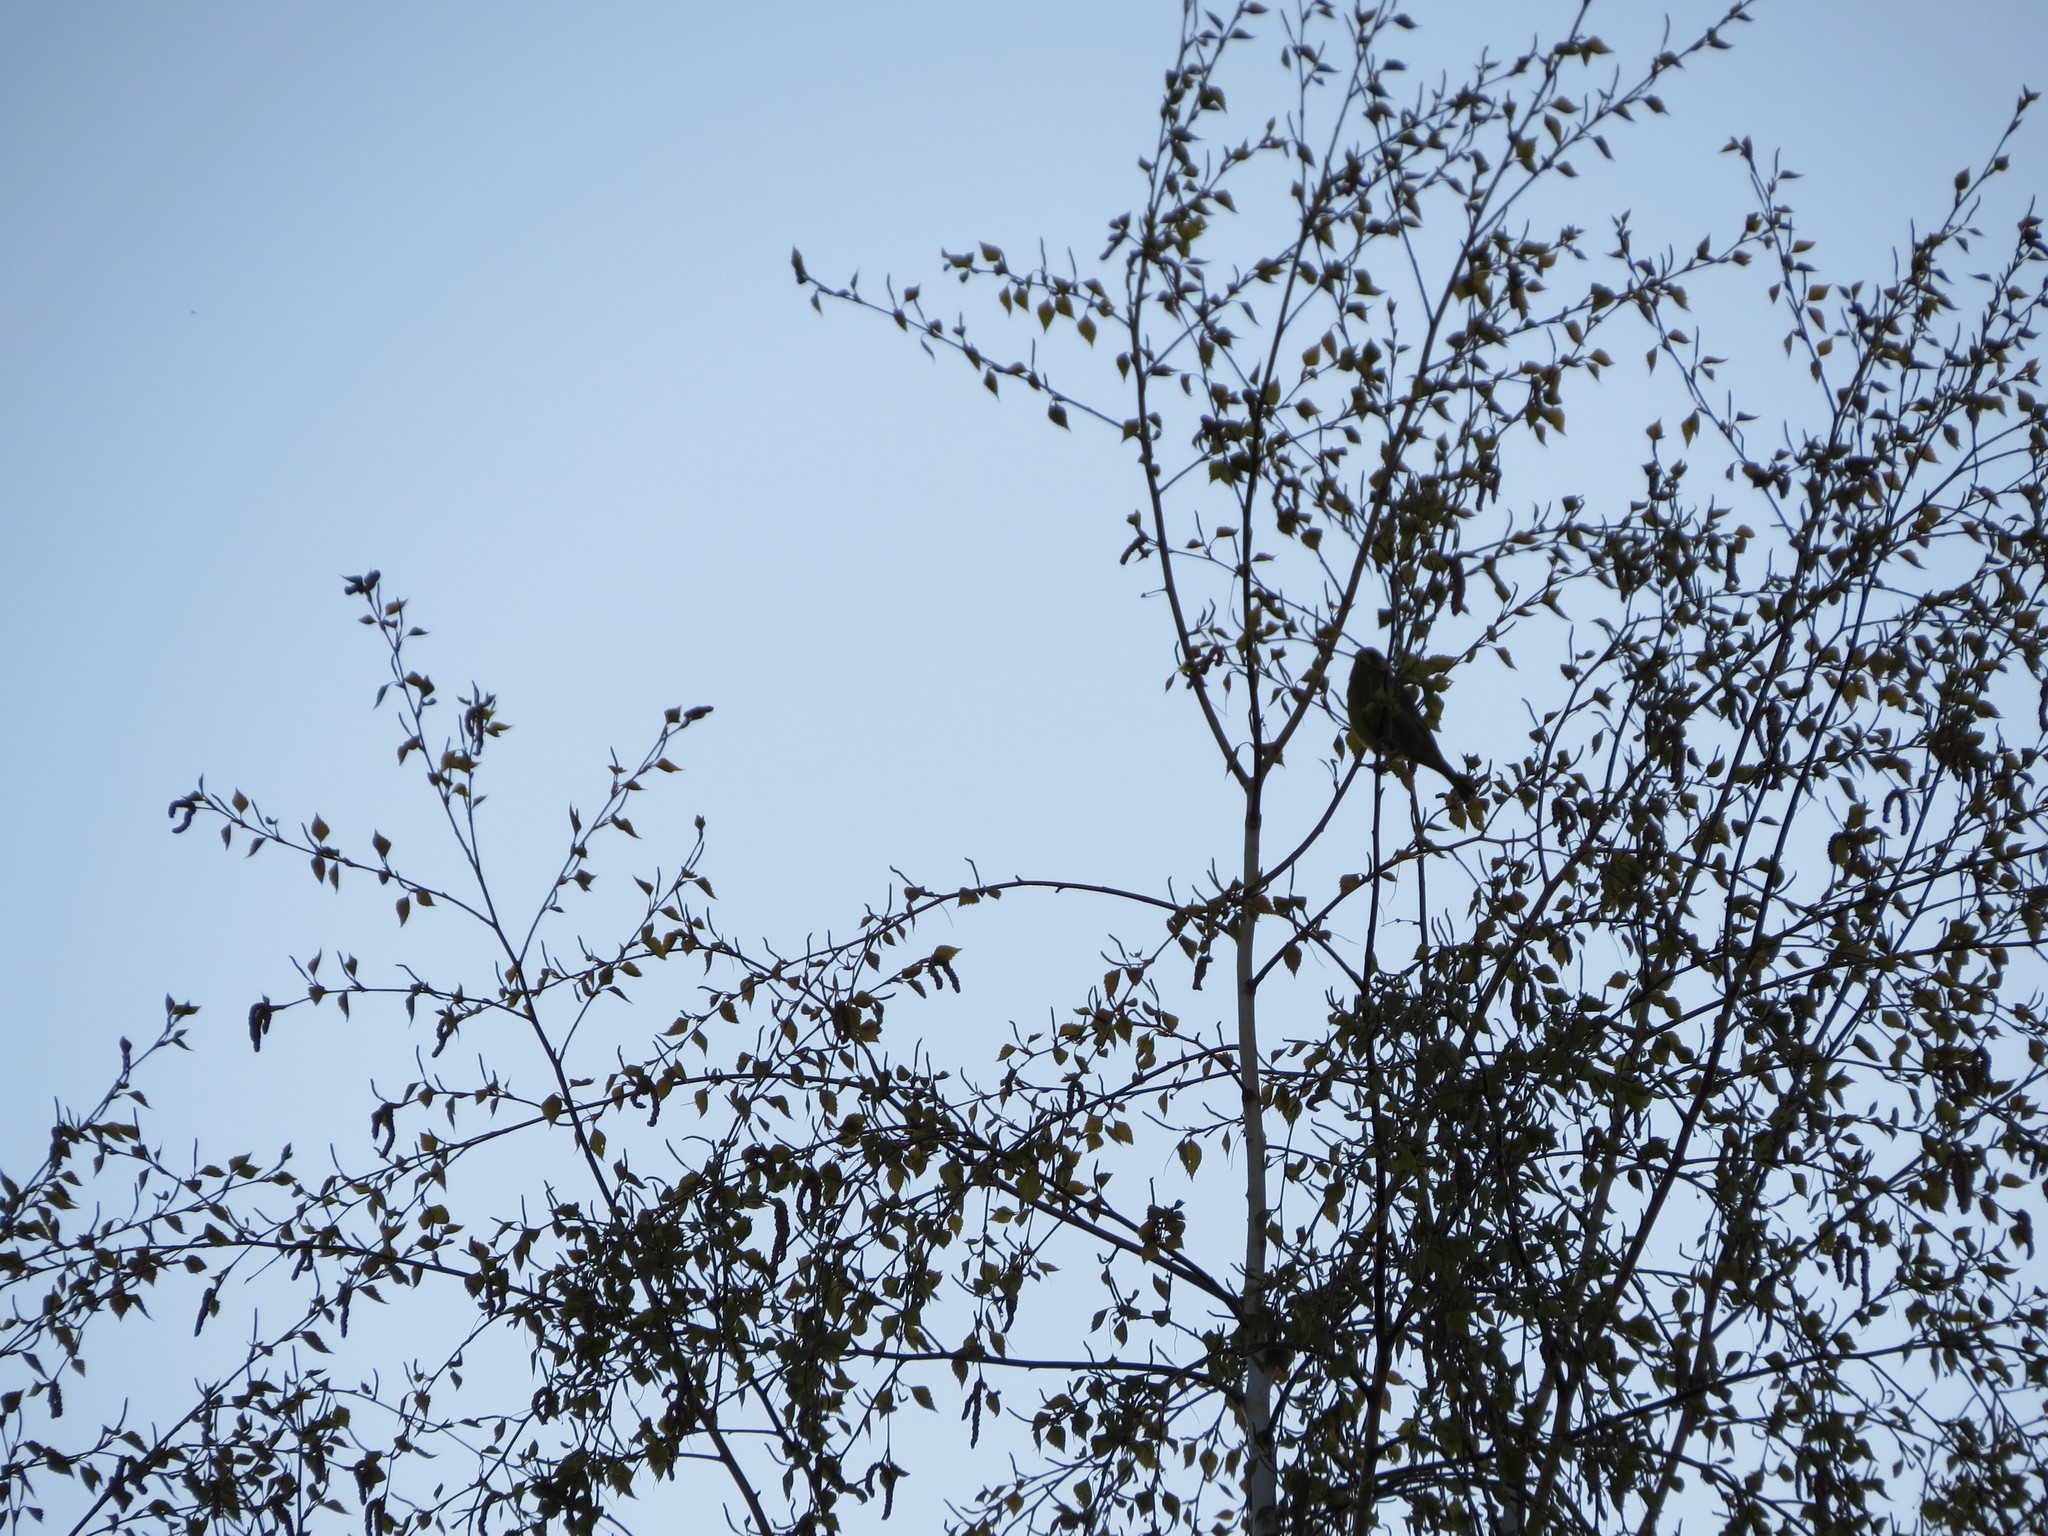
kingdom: Plantae
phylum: Tracheophyta
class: Liliopsida
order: Poales
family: Poaceae
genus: Chloris
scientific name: Chloris chloris
